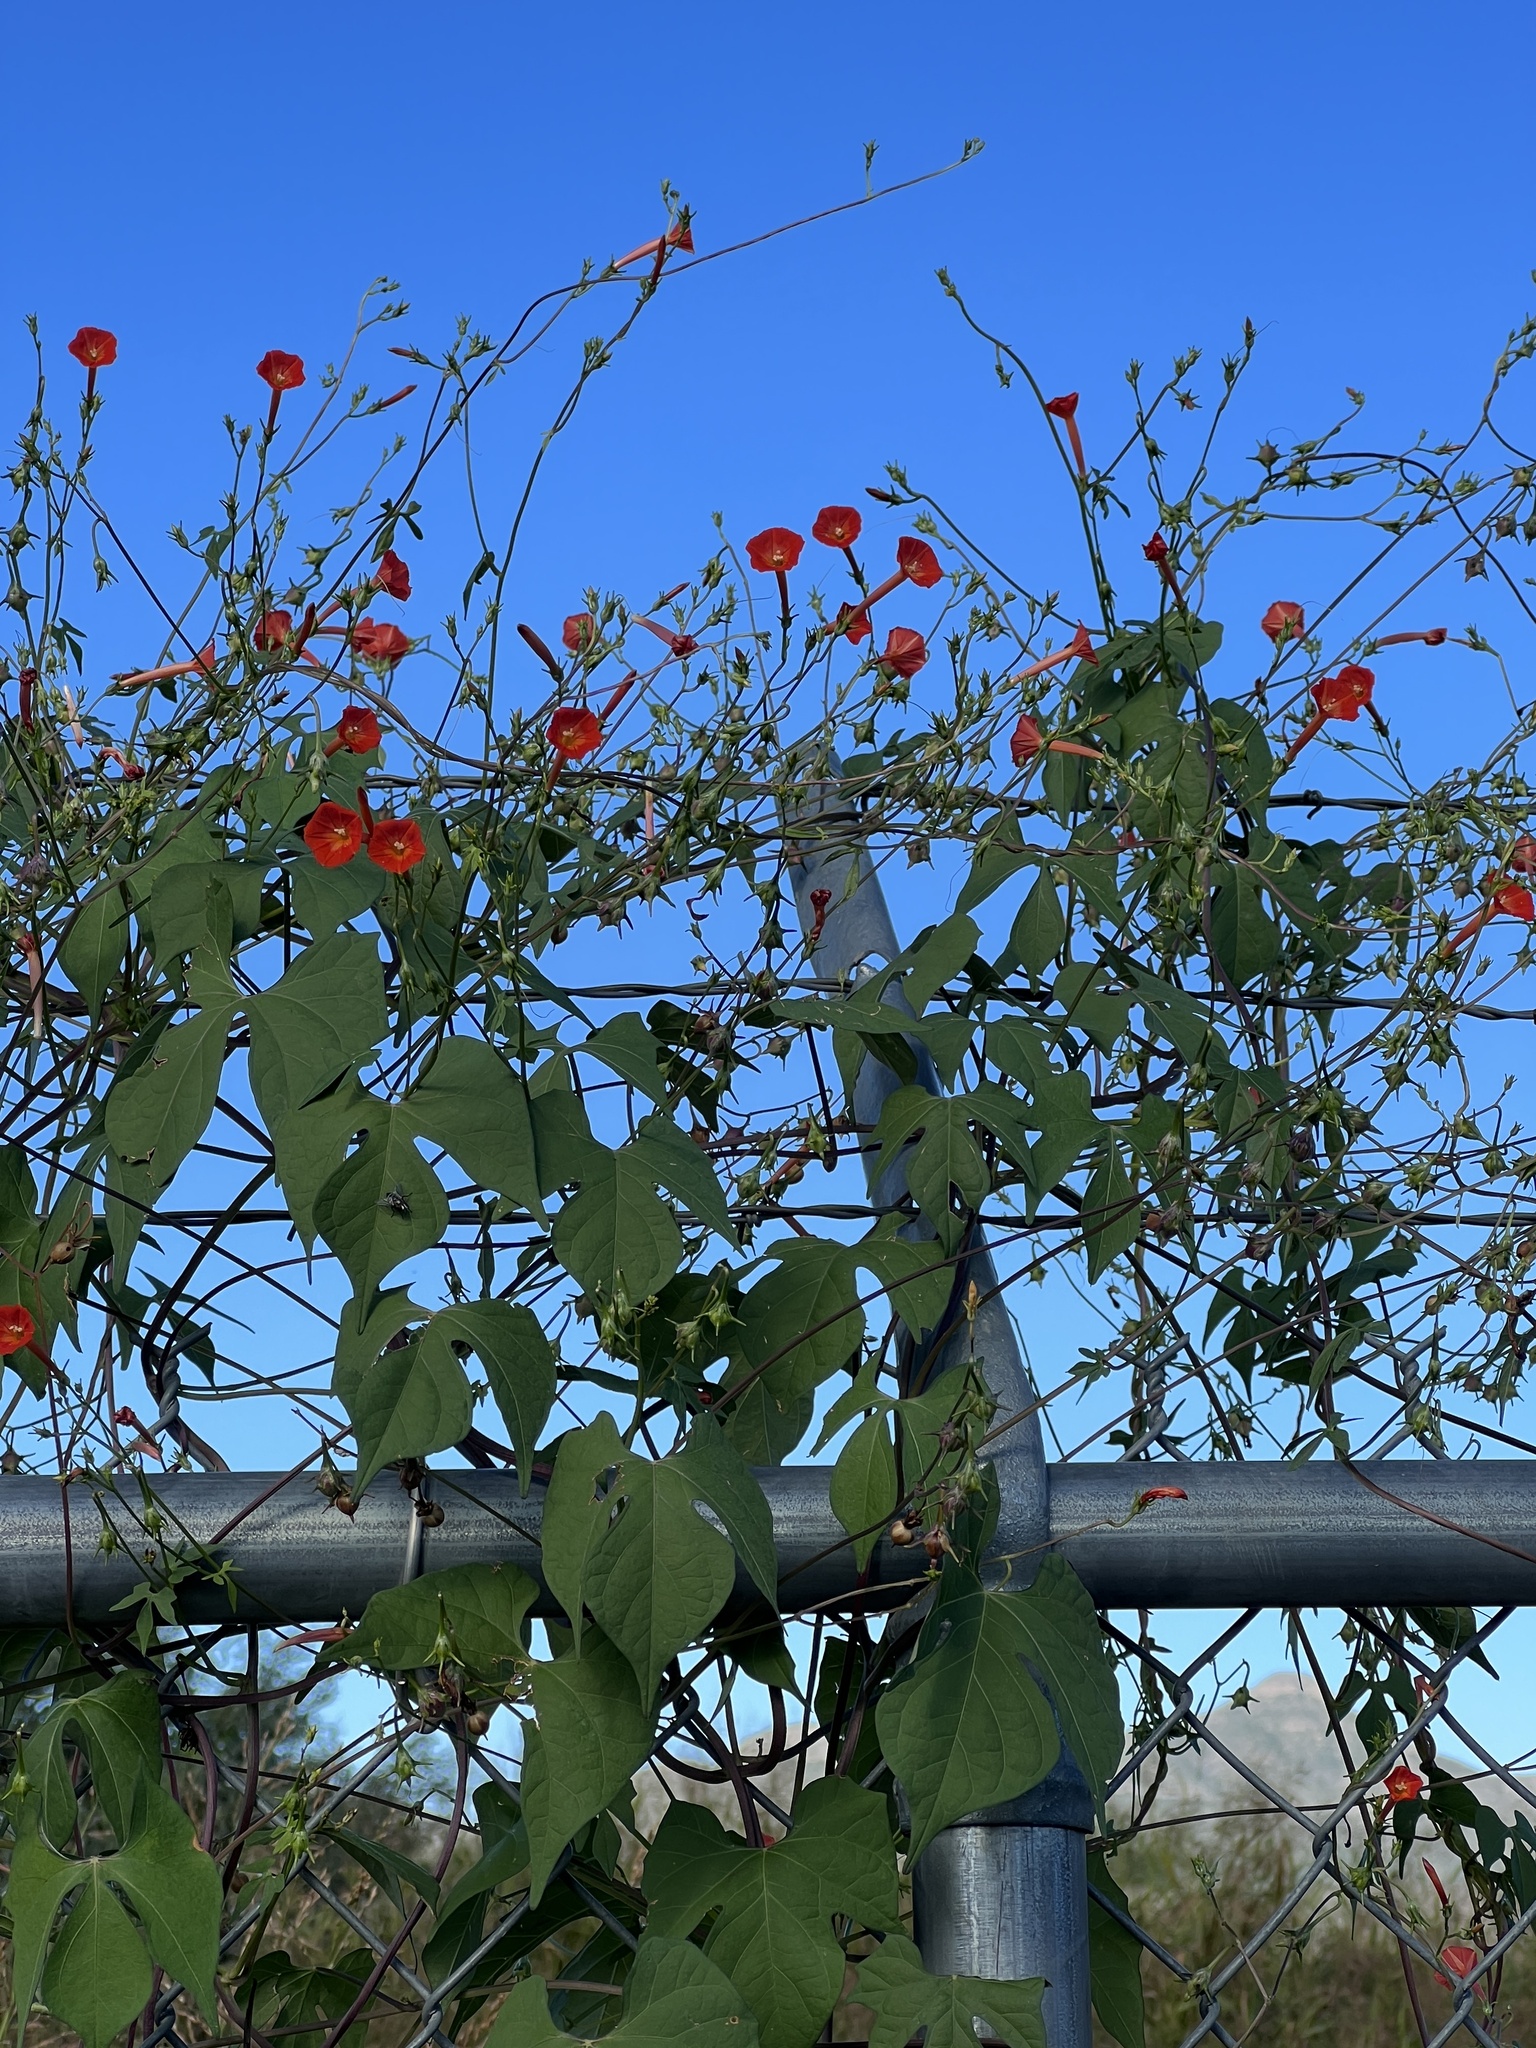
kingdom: Plantae
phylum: Tracheophyta
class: Magnoliopsida
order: Solanales
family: Convolvulaceae
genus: Ipomoea
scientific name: Ipomoea cristulata
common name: Trans-pecos morning-glory
